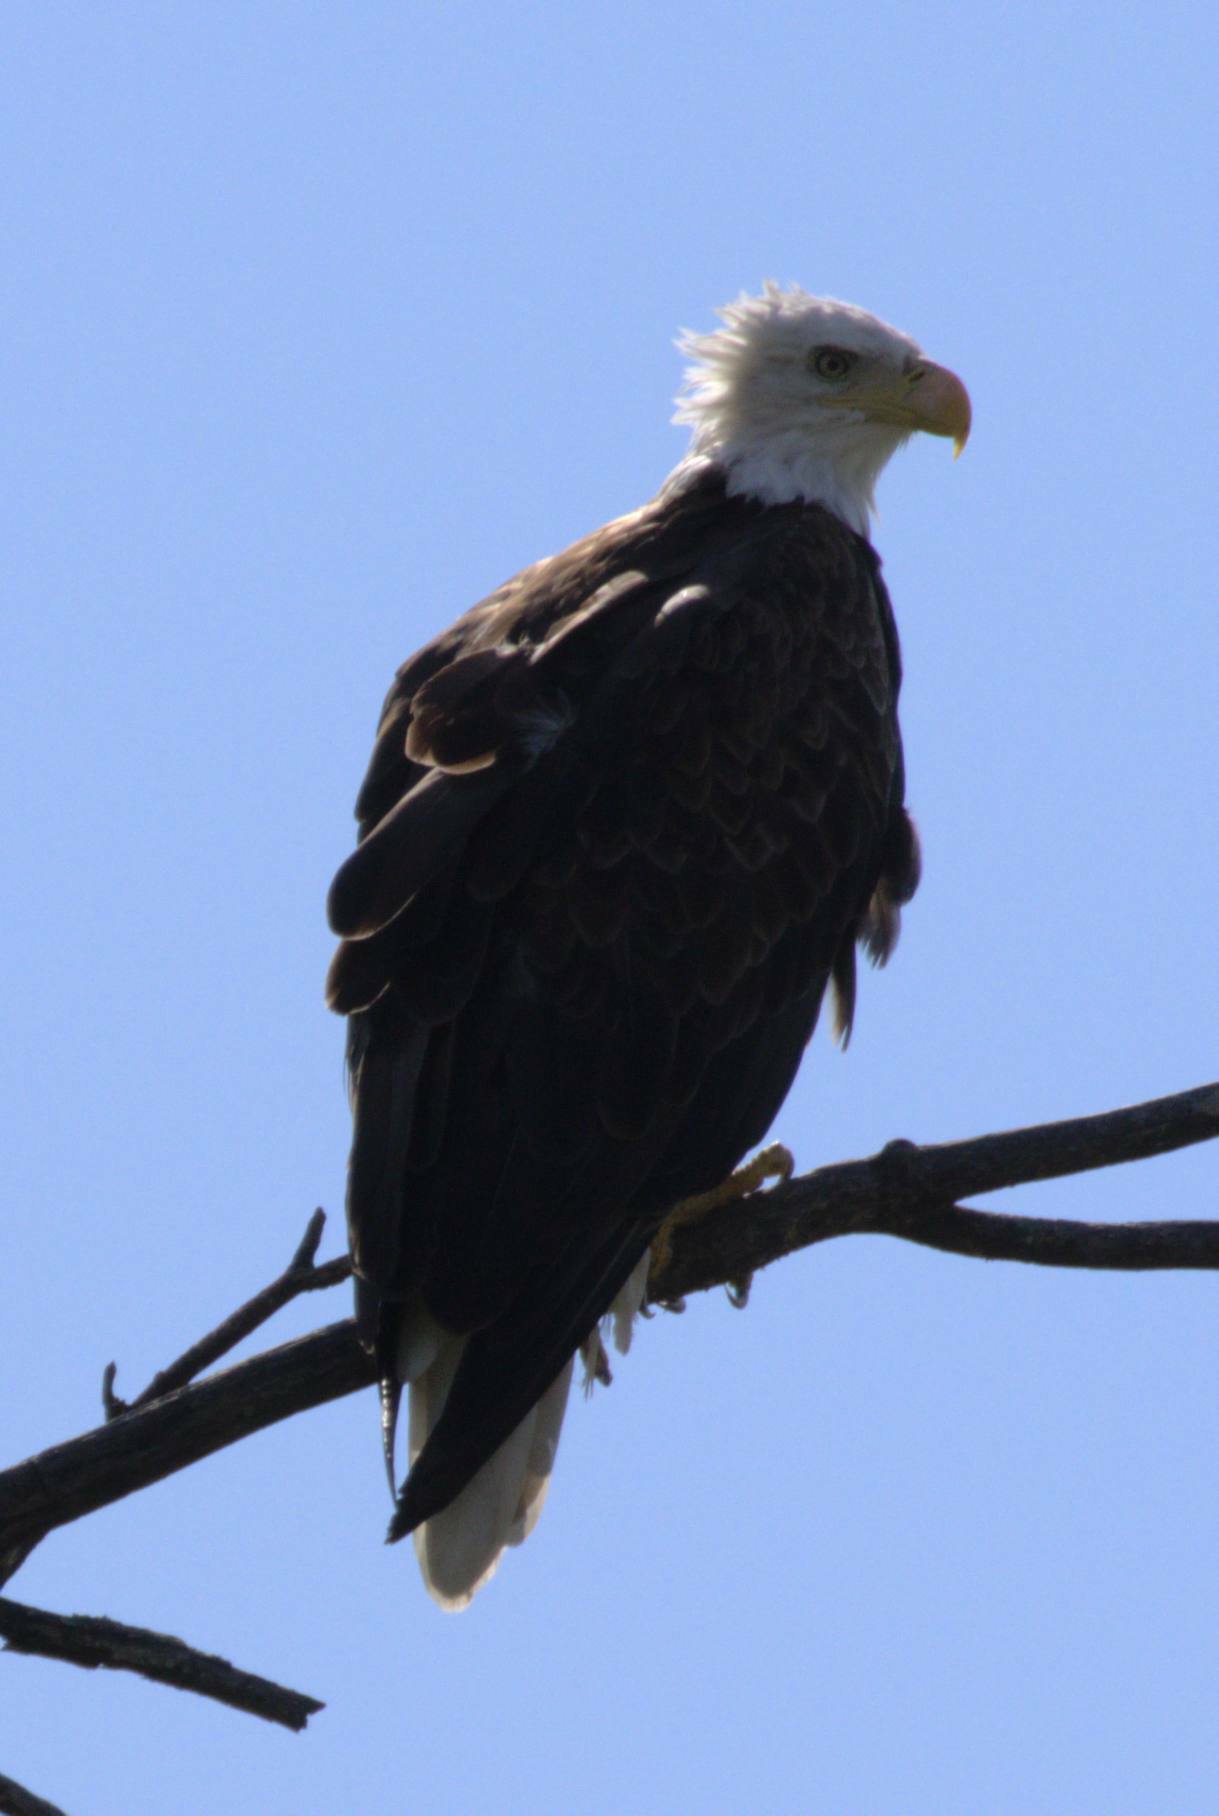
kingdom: Animalia
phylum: Chordata
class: Aves
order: Accipitriformes
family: Accipitridae
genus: Haliaeetus
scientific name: Haliaeetus leucocephalus
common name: Bald eagle
